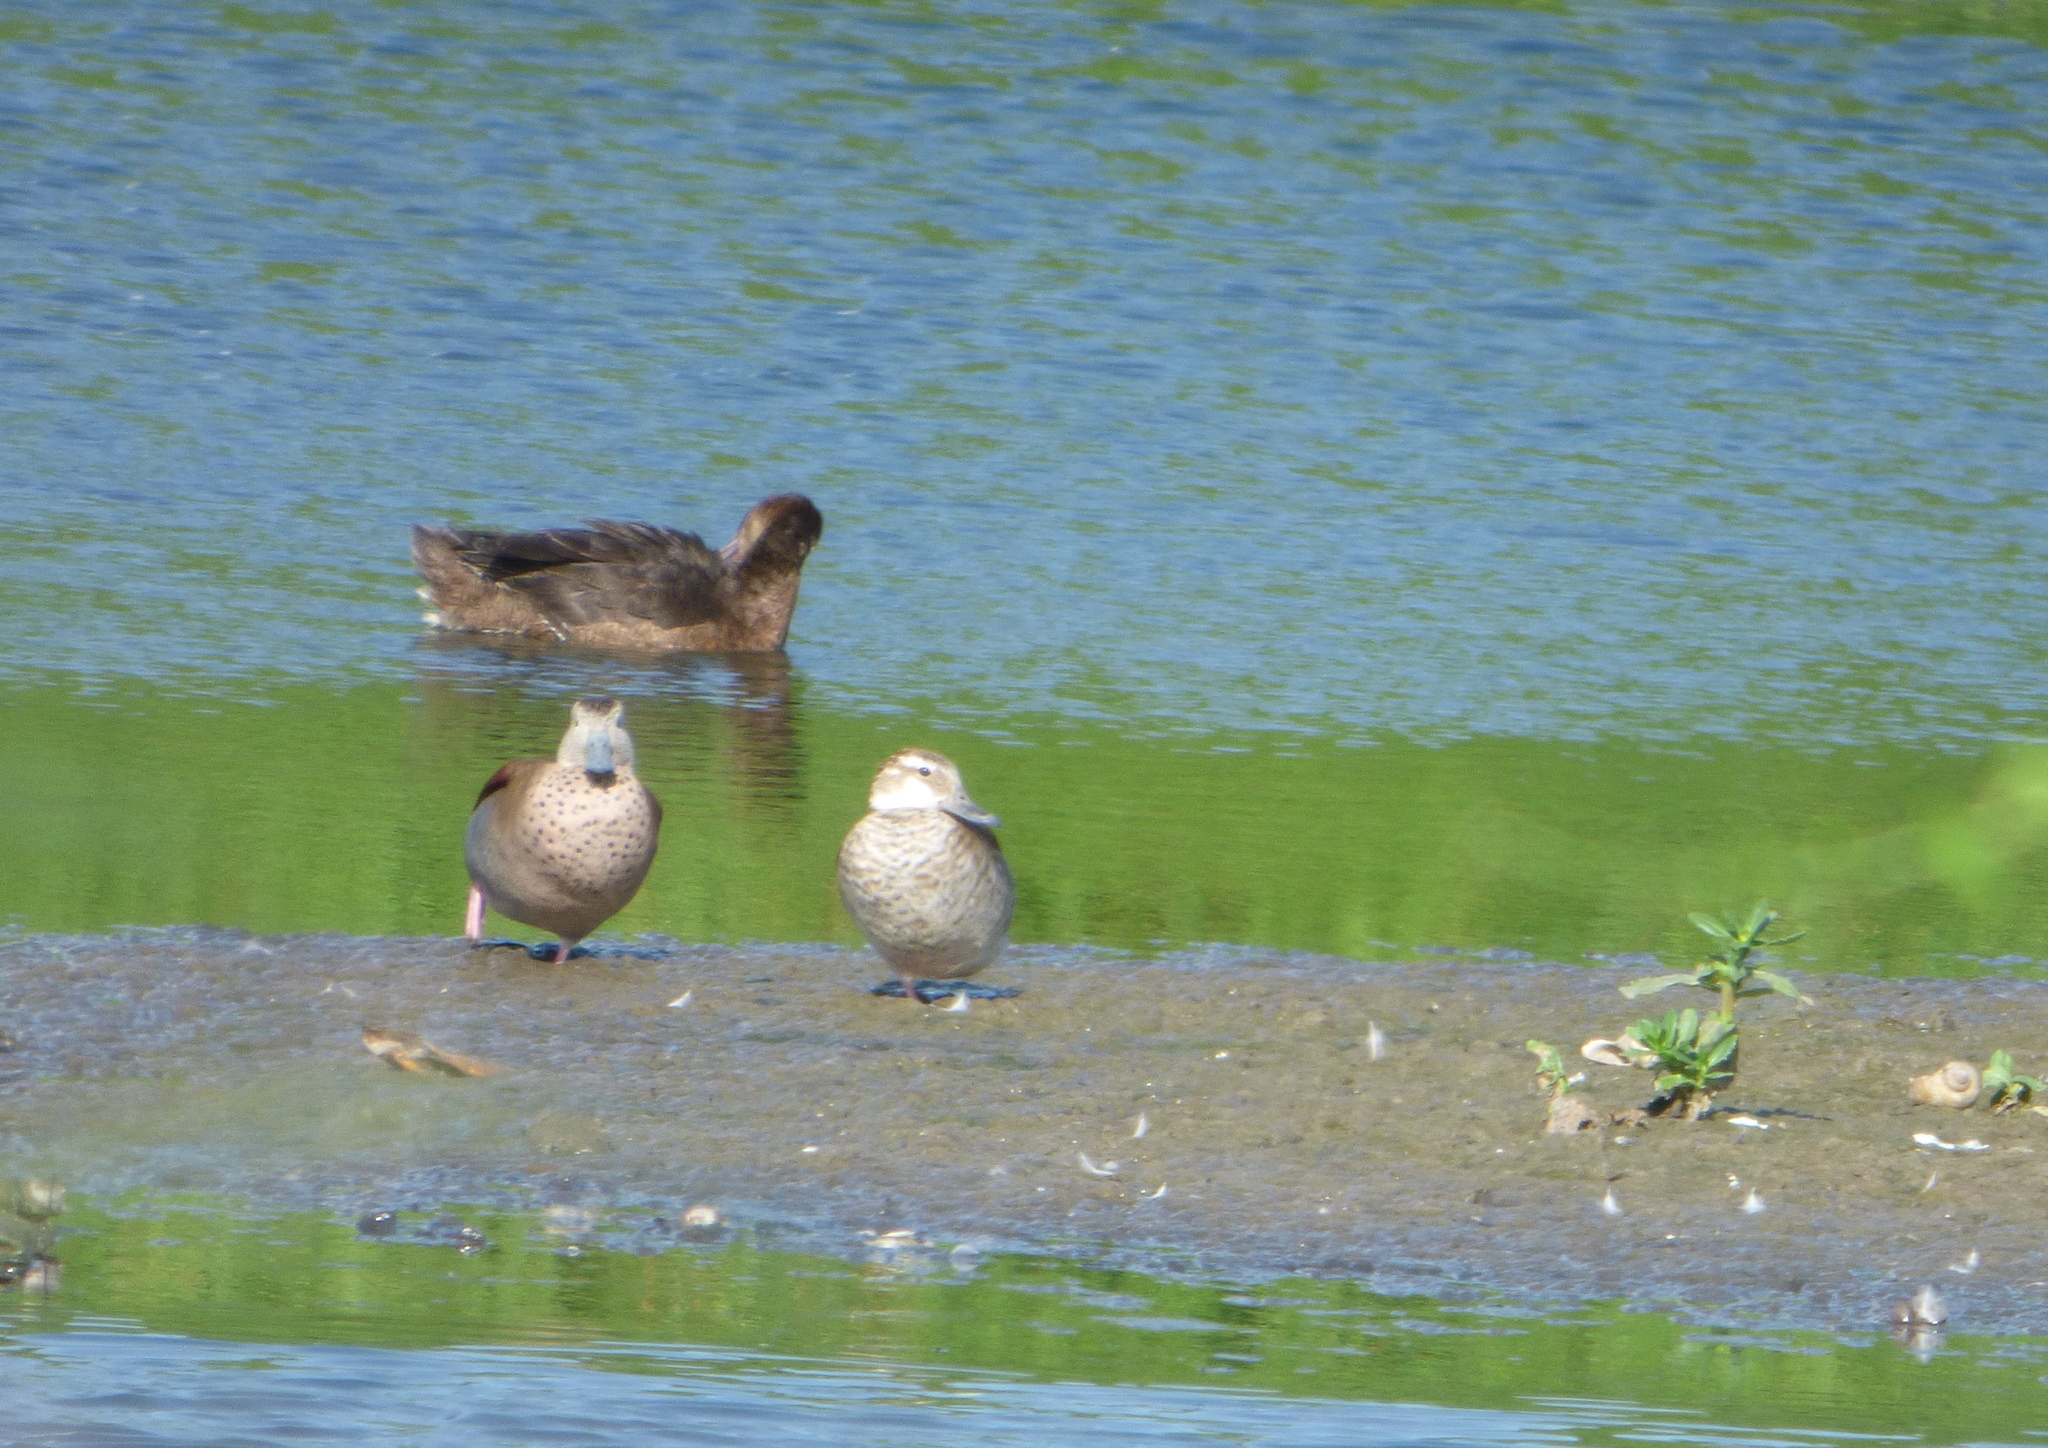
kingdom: Animalia
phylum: Chordata
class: Aves
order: Anseriformes
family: Anatidae
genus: Callonetta
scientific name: Callonetta leucophrys
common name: Ringed teal
